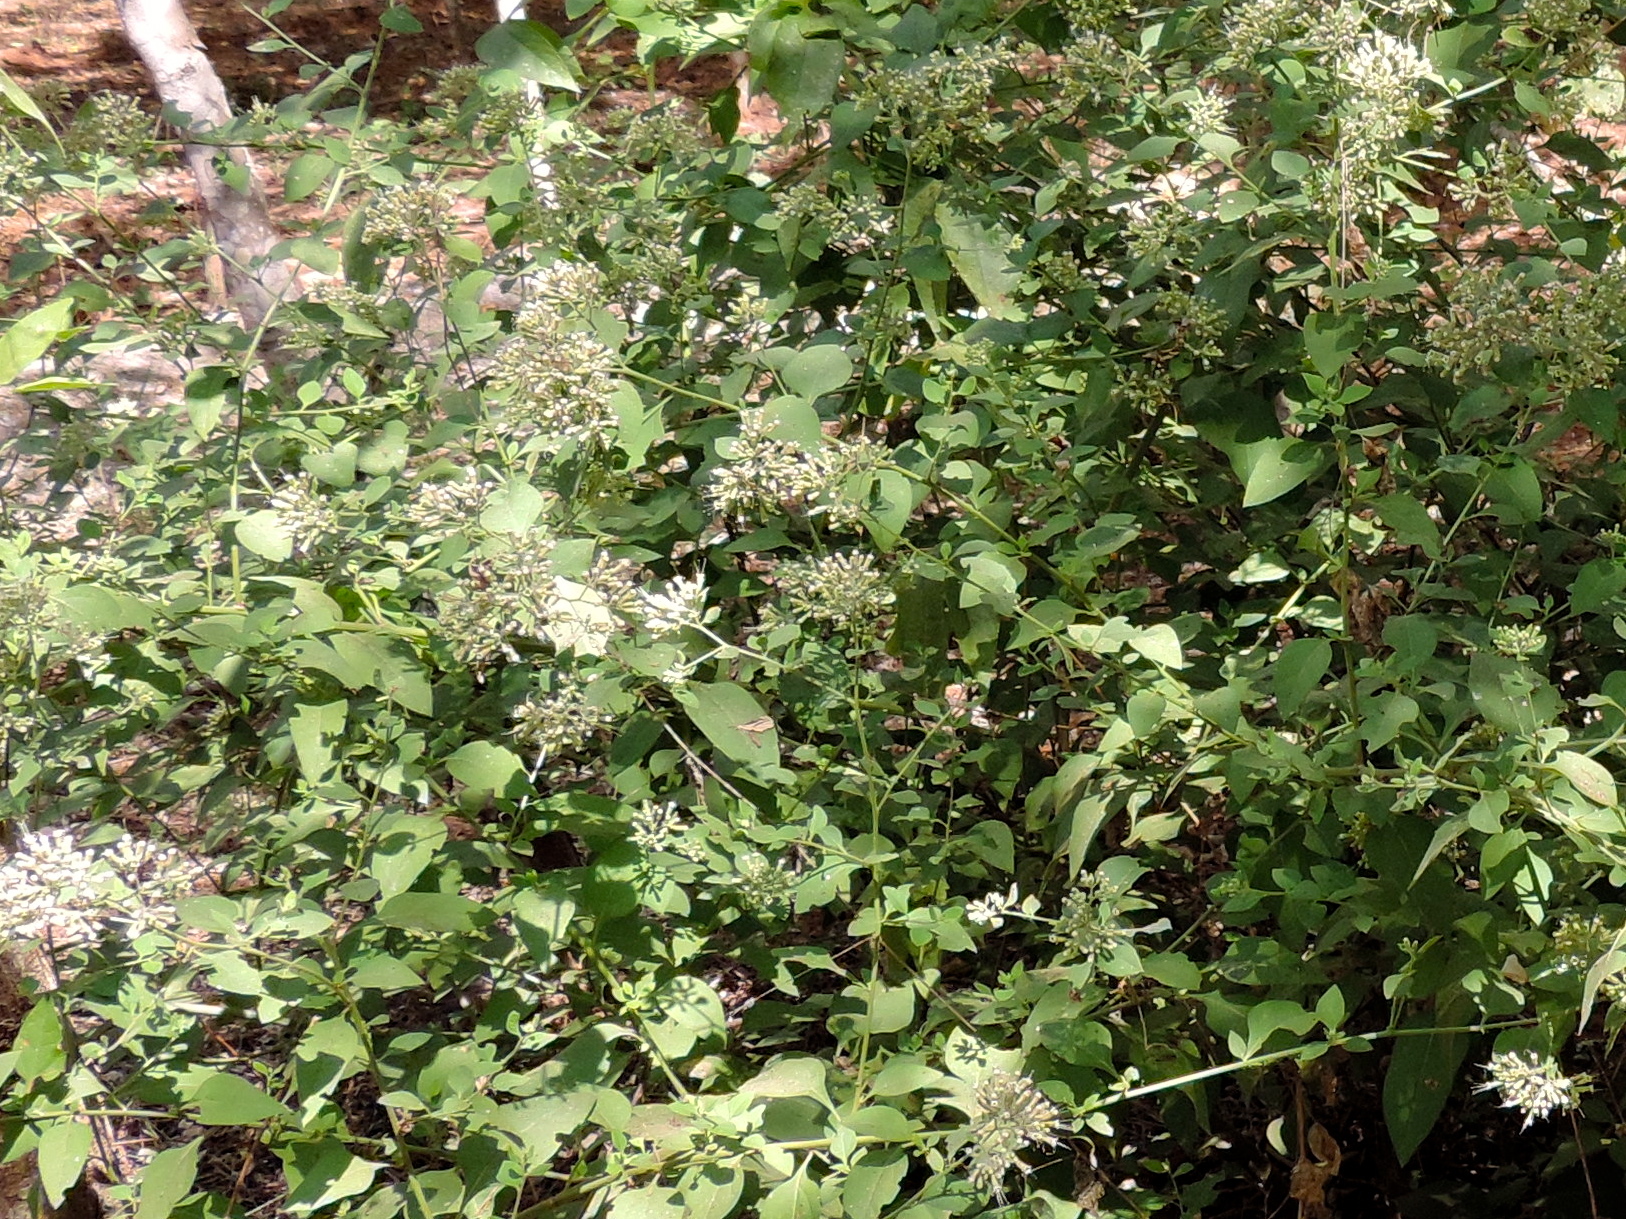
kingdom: Plantae
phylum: Tracheophyta
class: Magnoliopsida
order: Caryophyllales
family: Nyctaginaceae
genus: Salpianthus
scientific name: Salpianthus macrodontus
